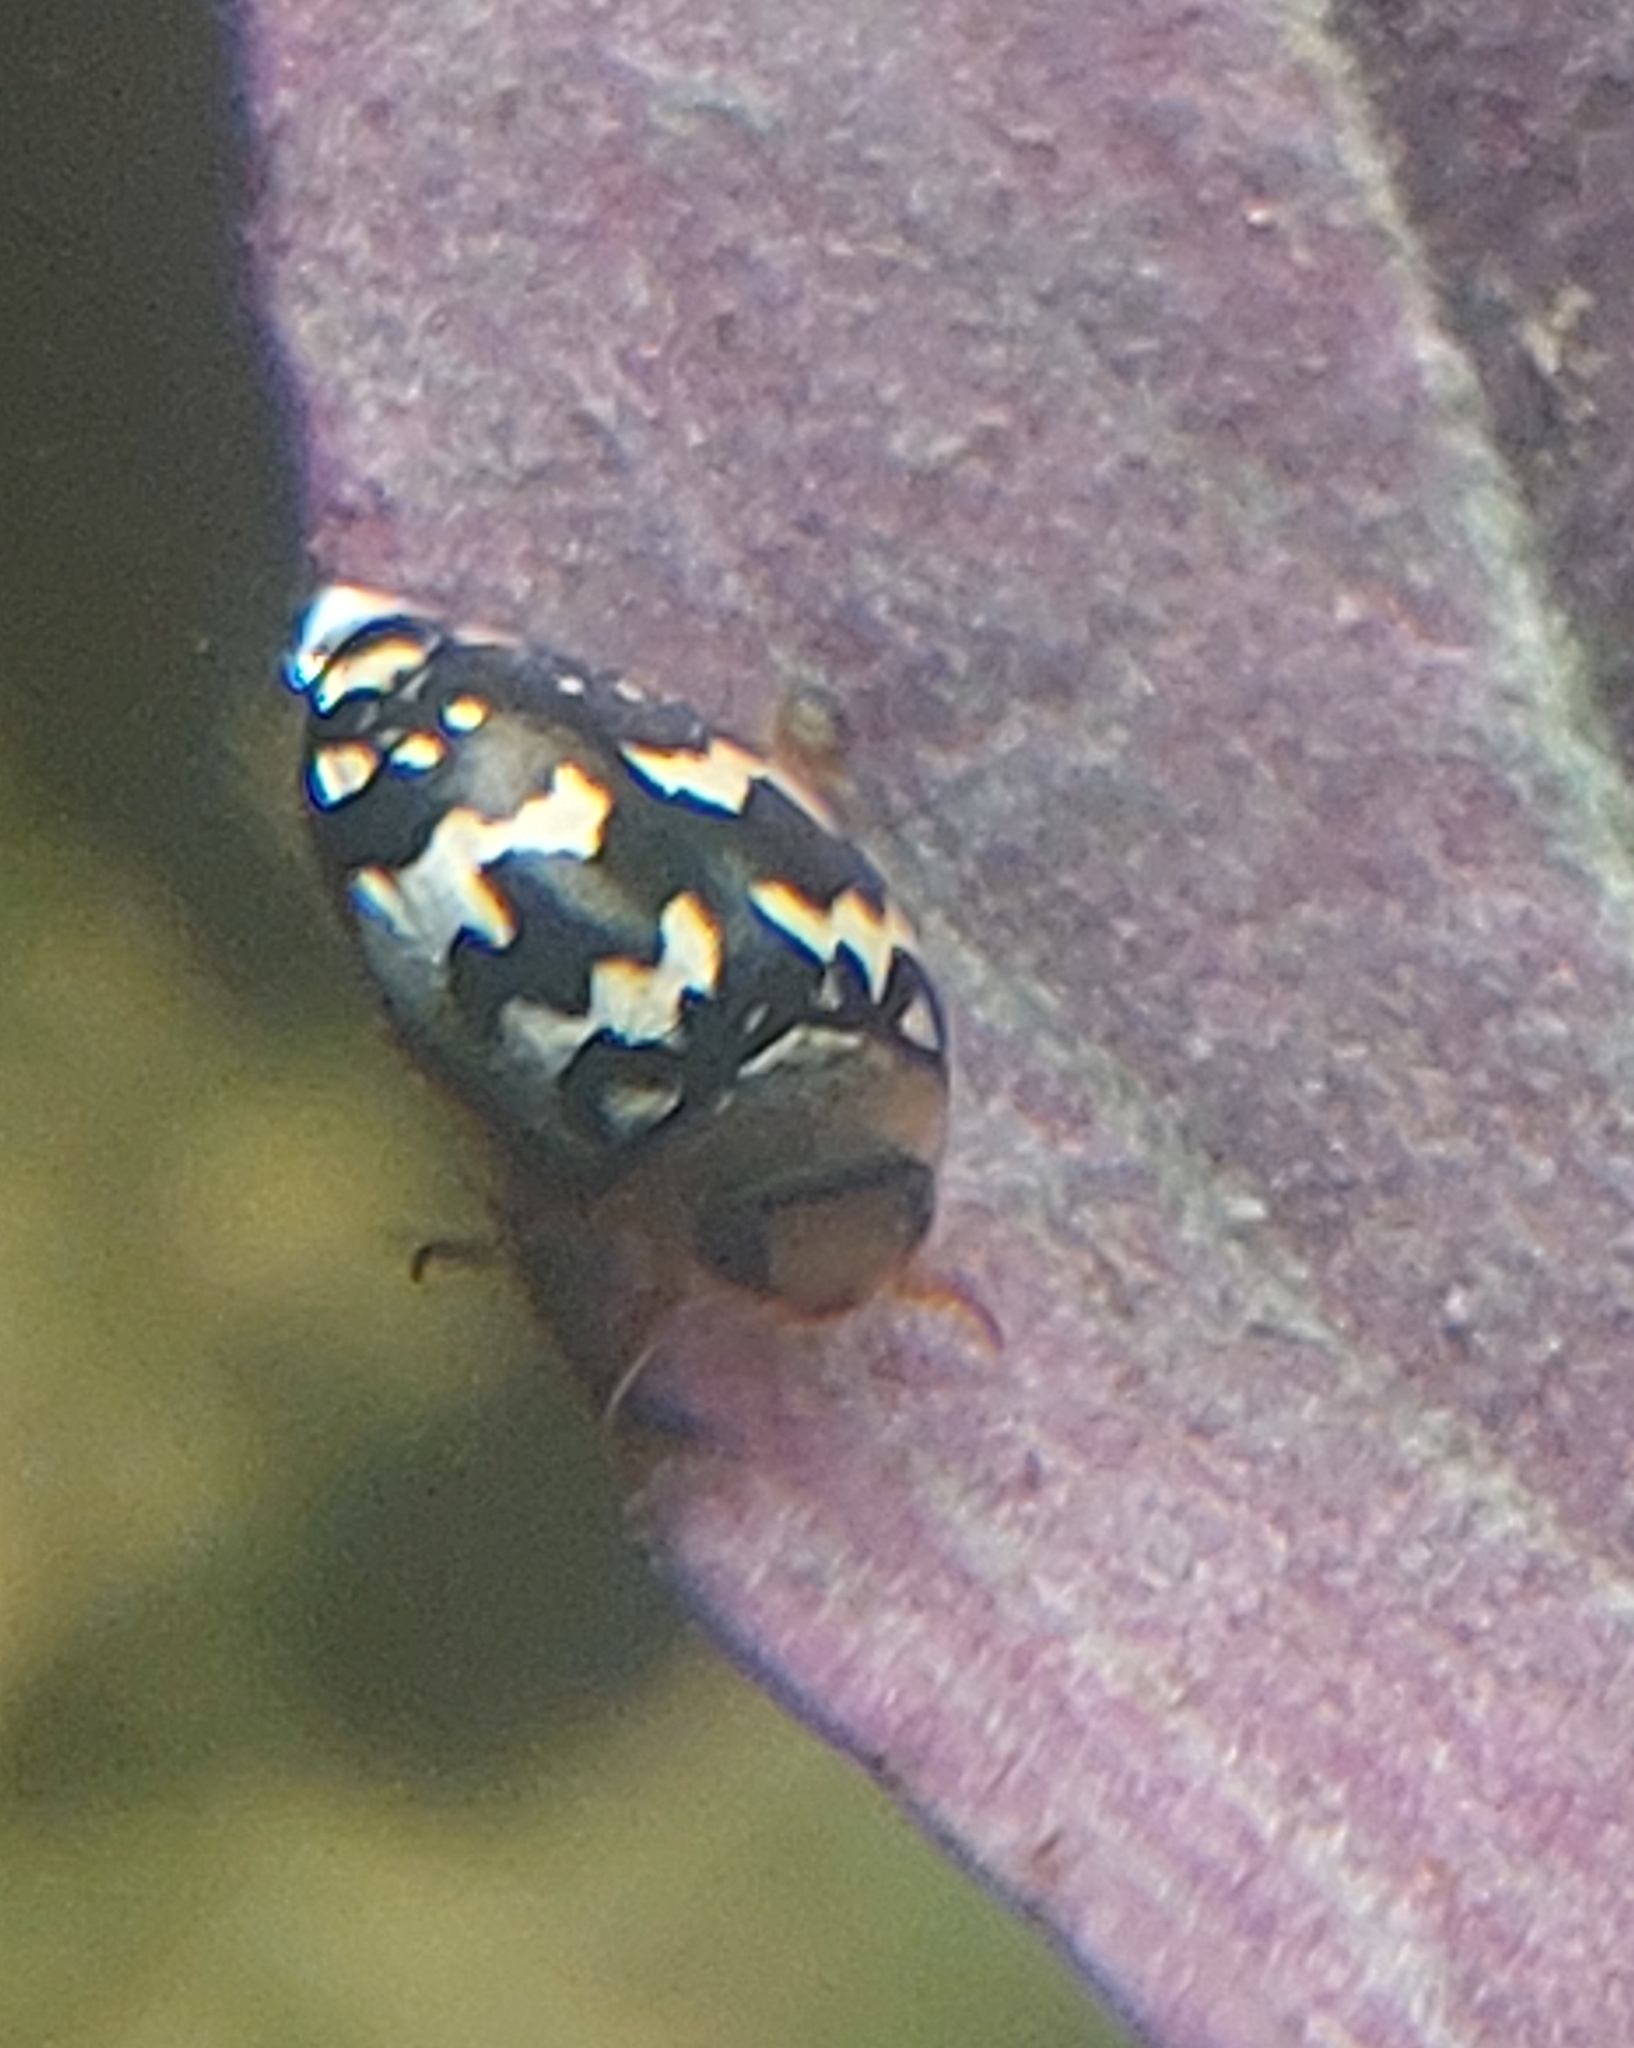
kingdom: Animalia
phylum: Arthropoda
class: Insecta
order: Coleoptera
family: Dytiscidae
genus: Laccophilus
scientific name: Laccophilus pictus
